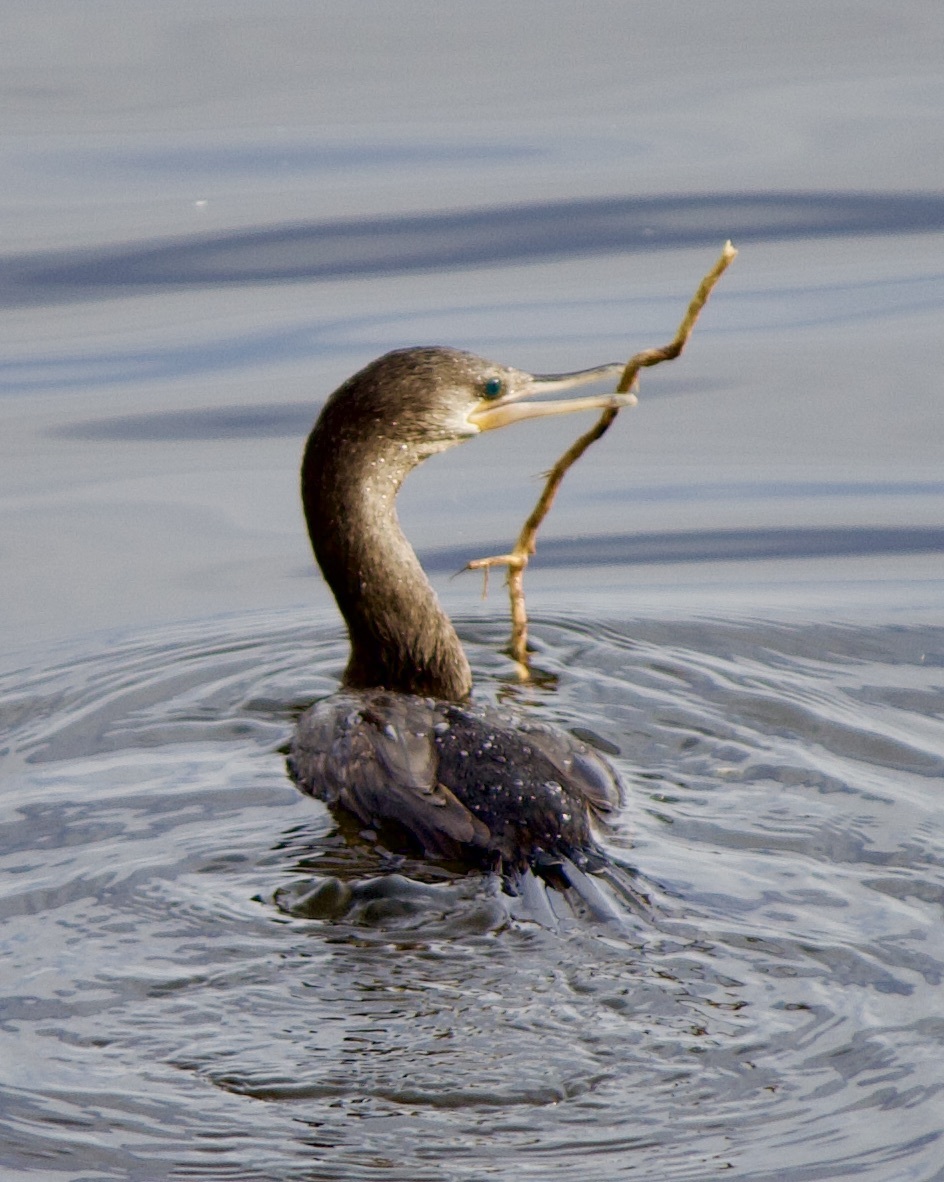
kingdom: Animalia
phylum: Chordata
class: Aves
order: Suliformes
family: Phalacrocoracidae
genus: Phalacrocorax
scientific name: Phalacrocorax brasilianus
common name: Neotropic cormorant
